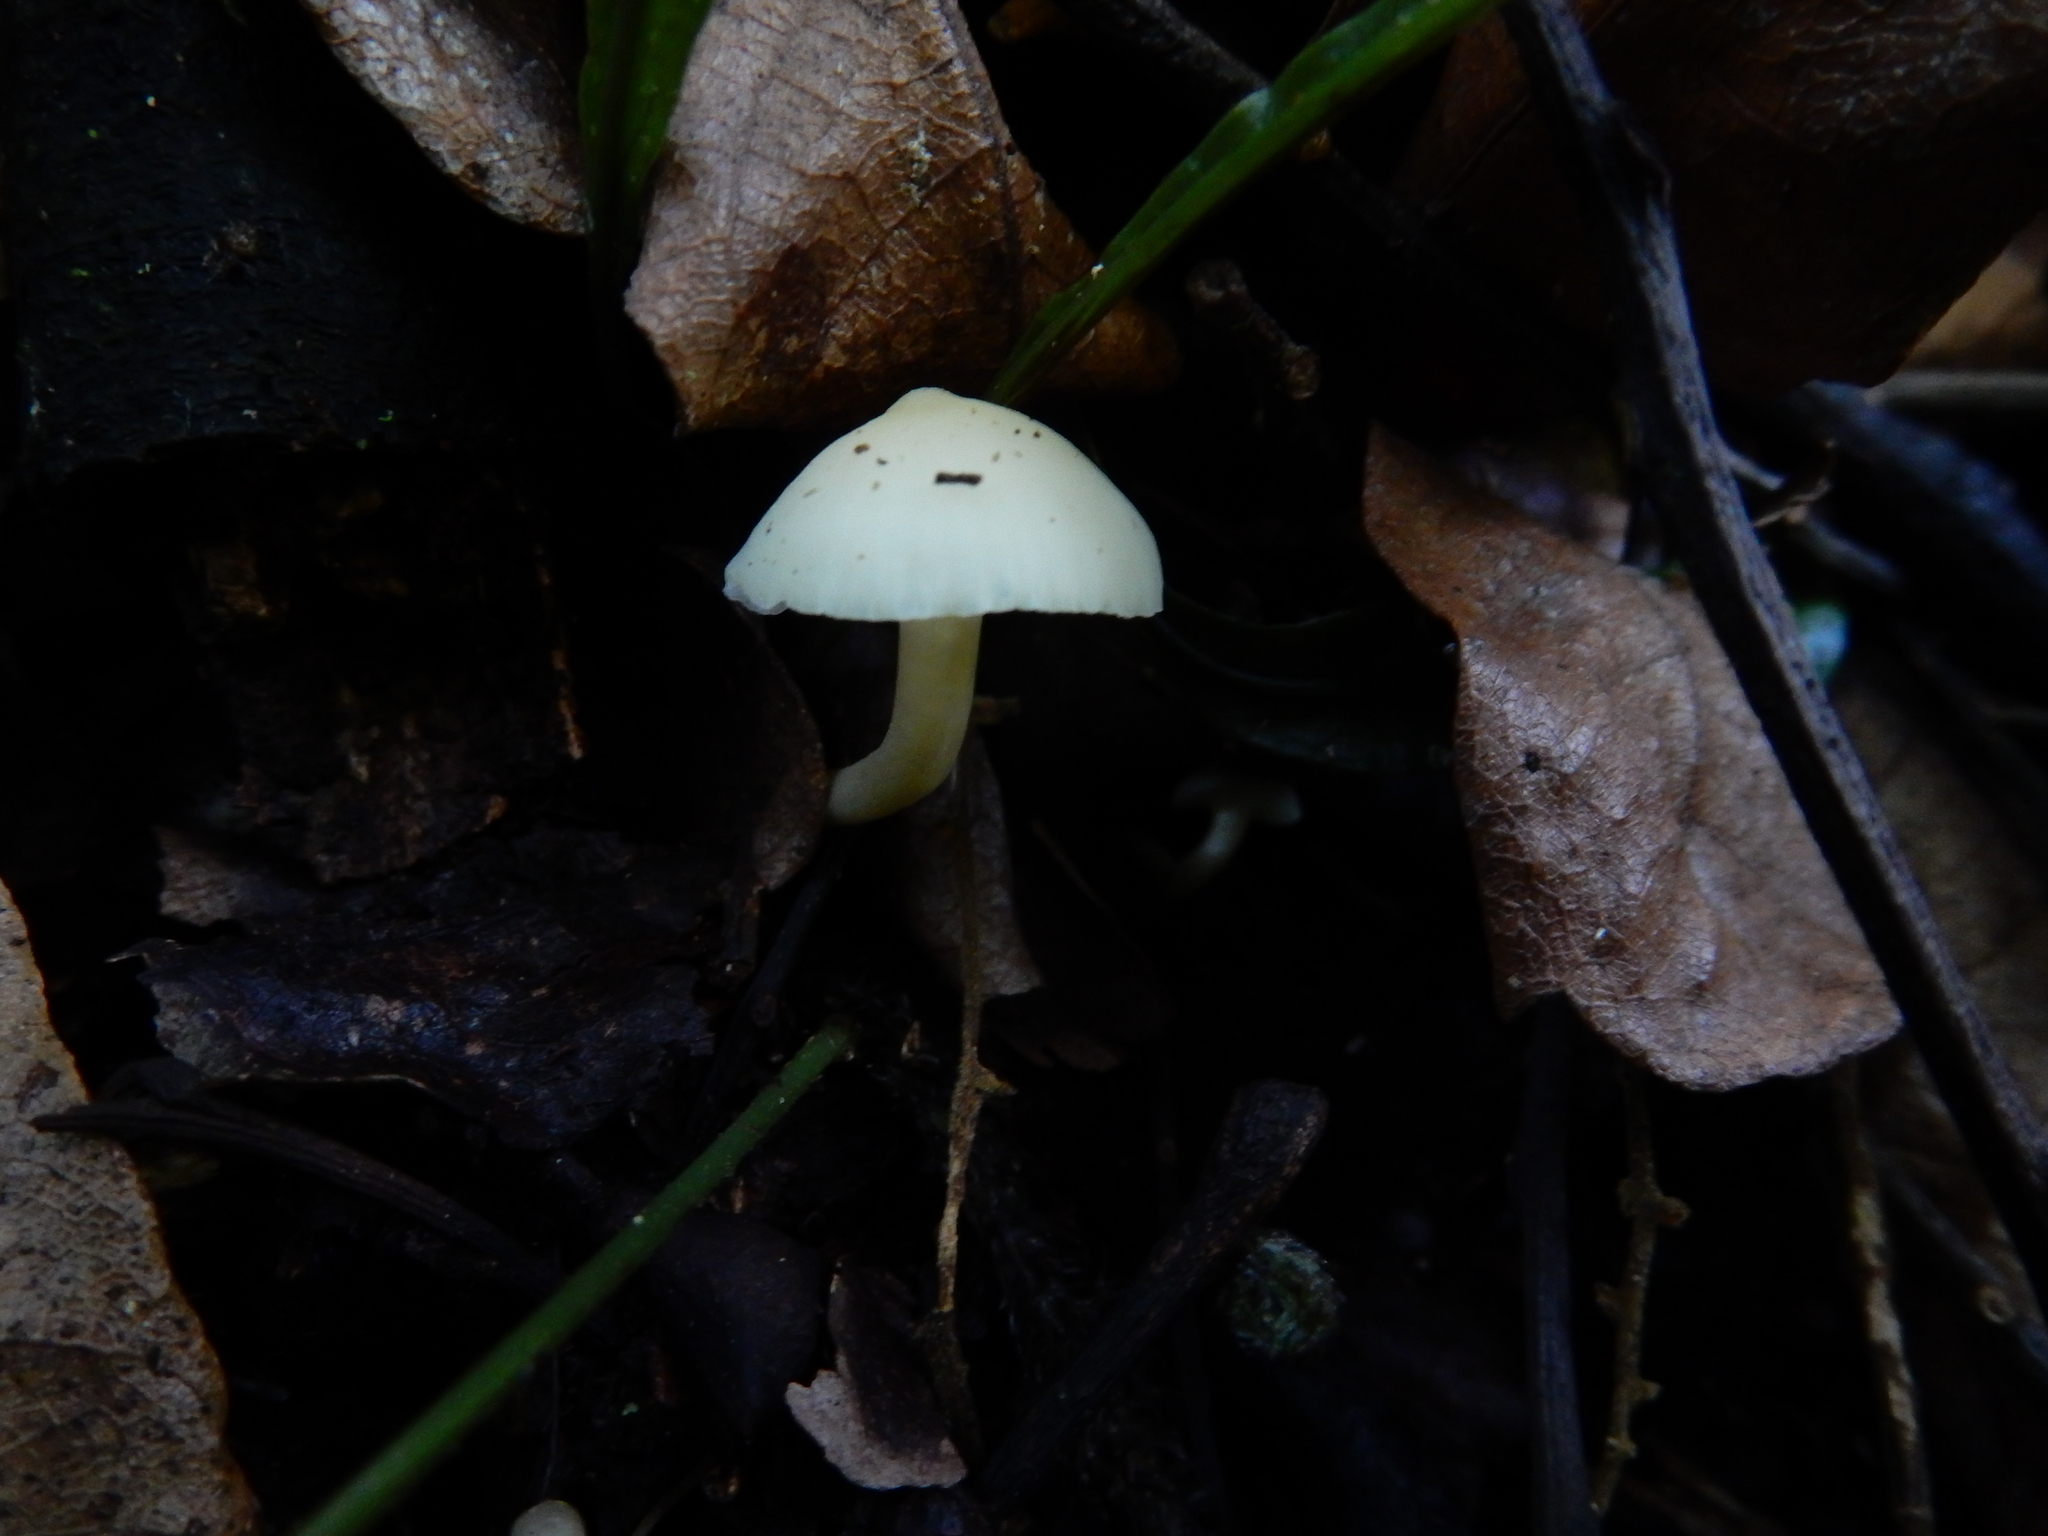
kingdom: Fungi
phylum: Basidiomycota
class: Agaricomycetes
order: Agaricales
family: Hygrophoraceae
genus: Hygrophorus
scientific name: Hygrophorus involutus
